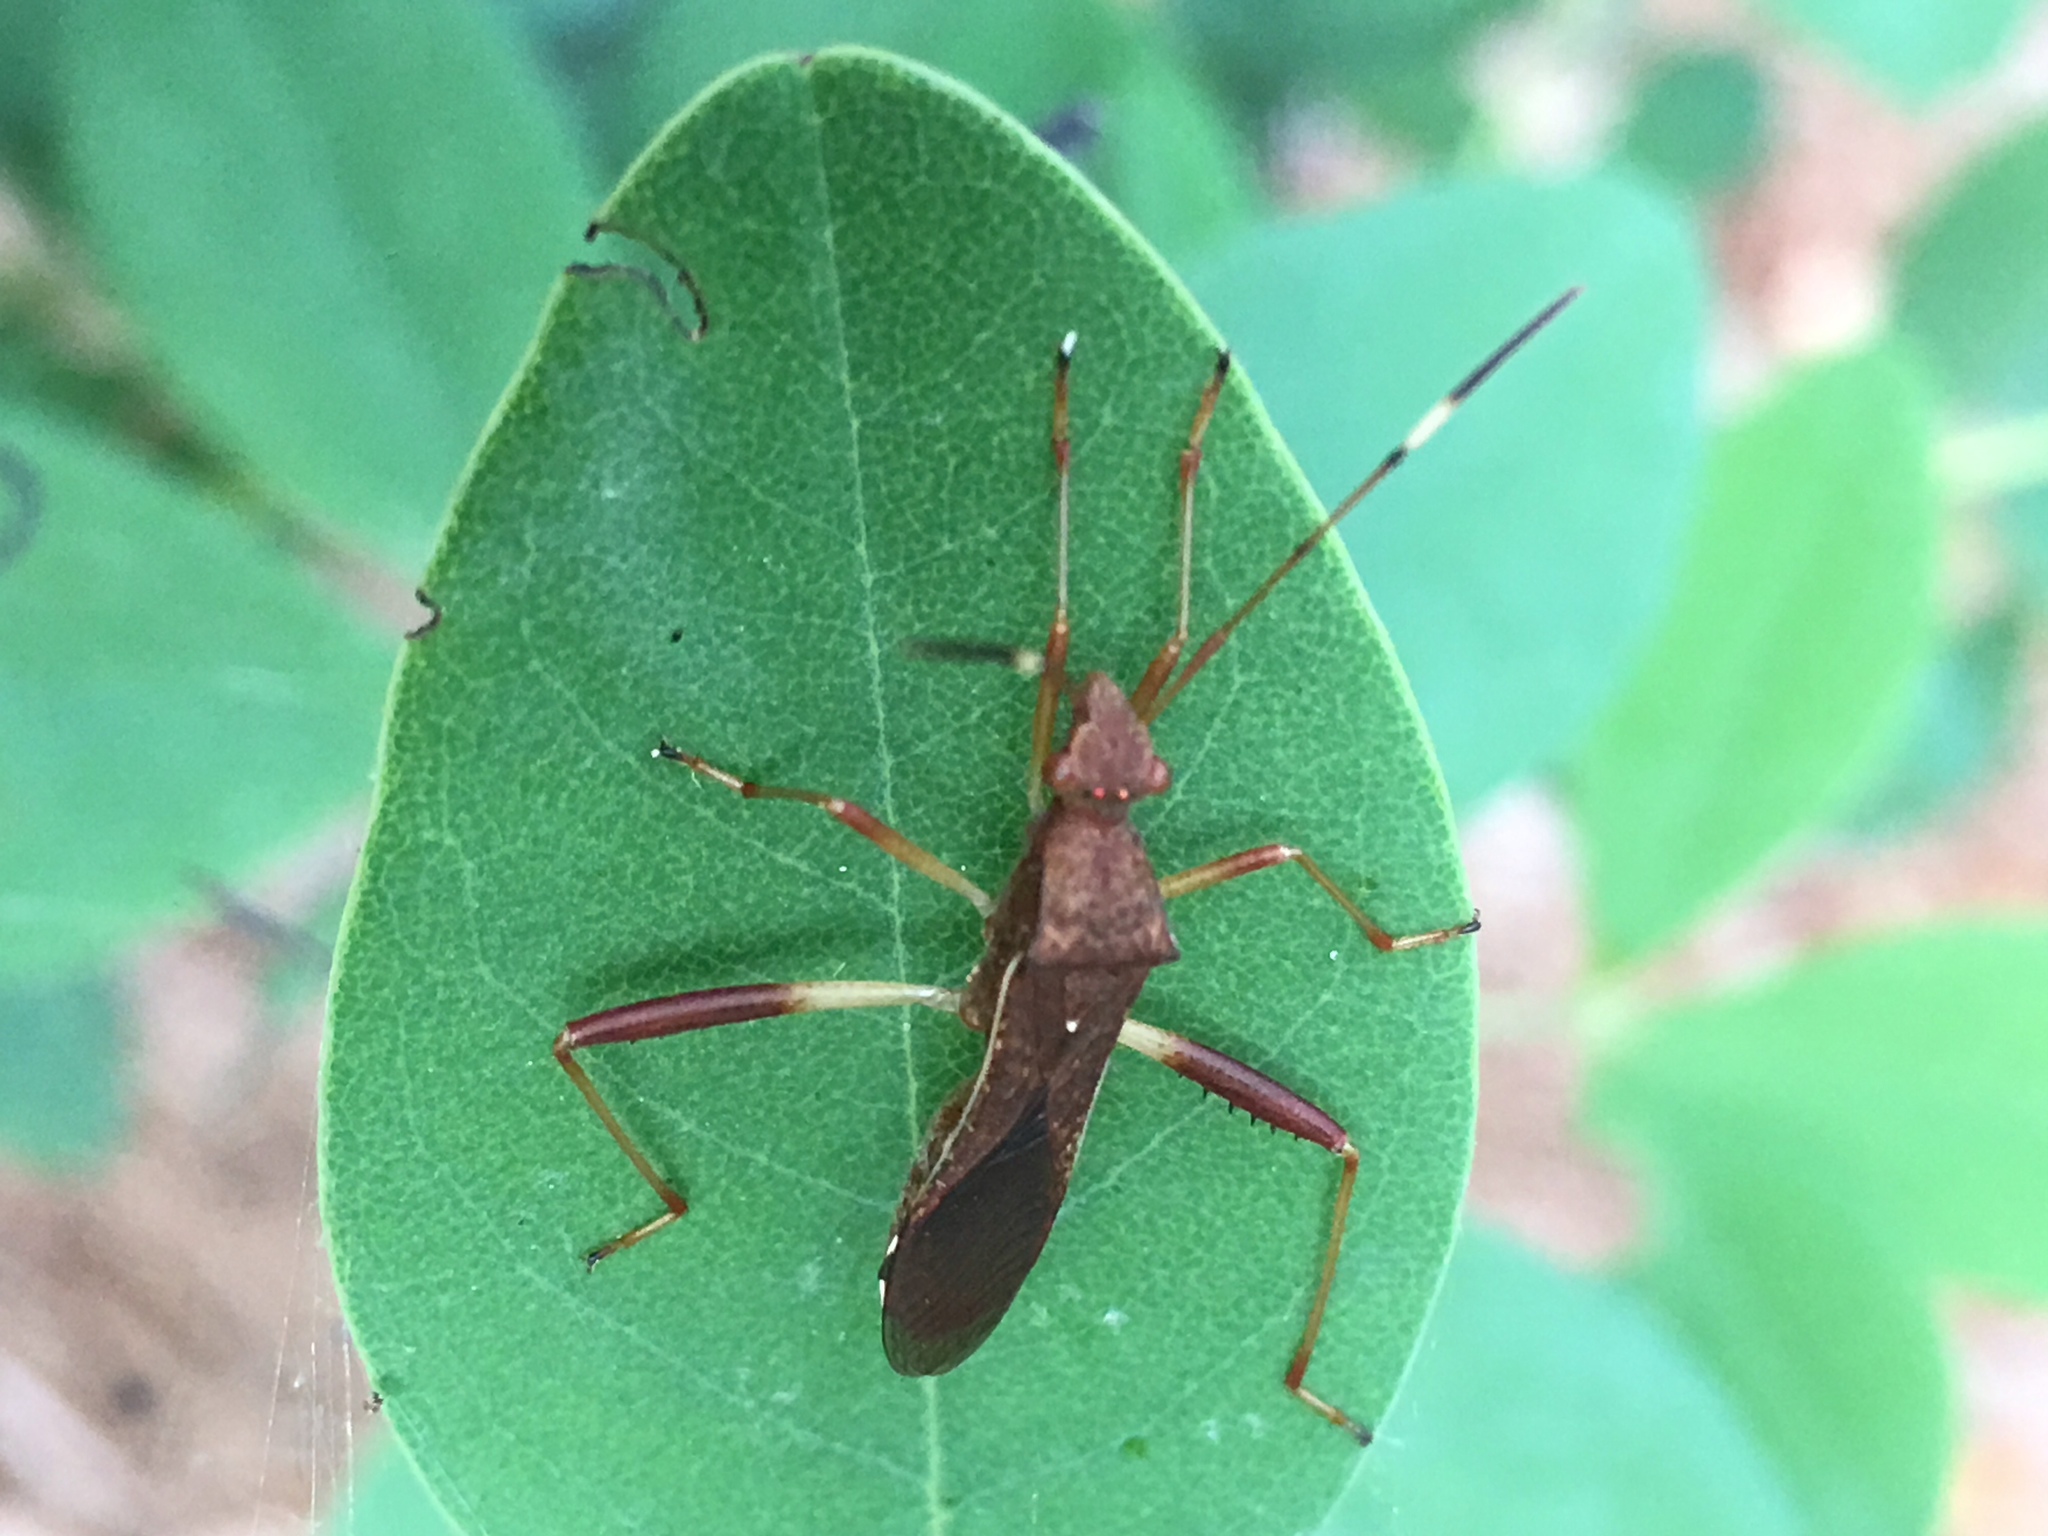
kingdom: Animalia
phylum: Arthropoda
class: Insecta
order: Hemiptera
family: Alydidae
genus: Megalotomus
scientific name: Megalotomus quinquespinosus
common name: Lupine bug
